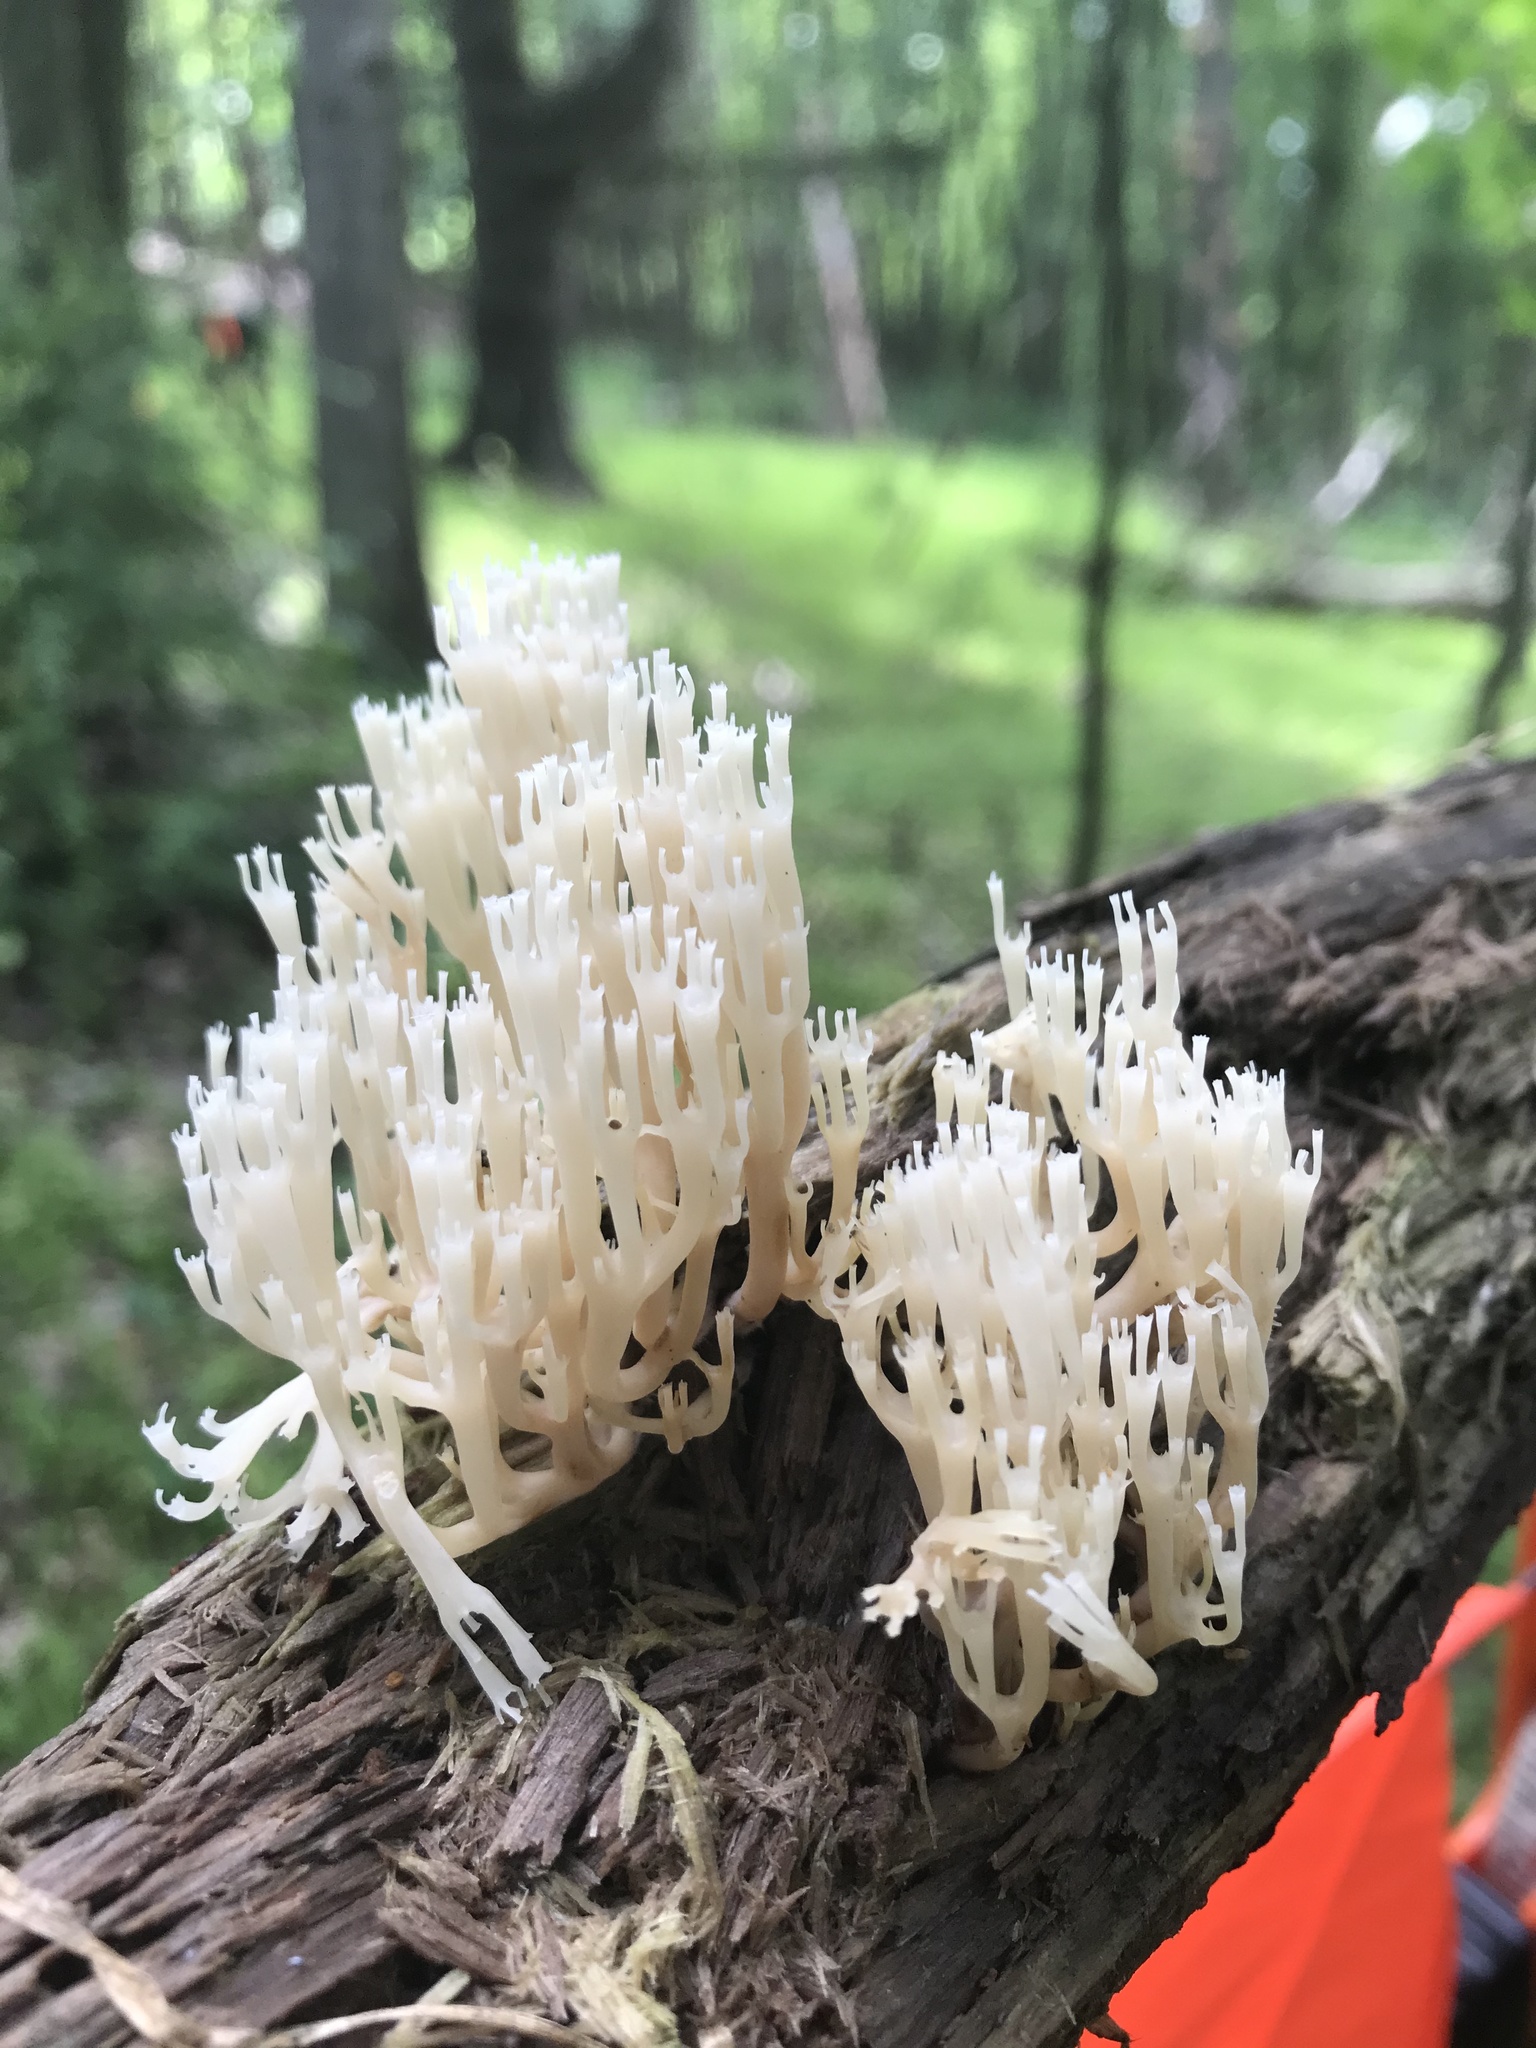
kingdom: Fungi
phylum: Basidiomycota
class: Agaricomycetes
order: Russulales
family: Auriscalpiaceae
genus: Artomyces
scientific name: Artomyces pyxidatus
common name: Crown-tipped coral fungus
